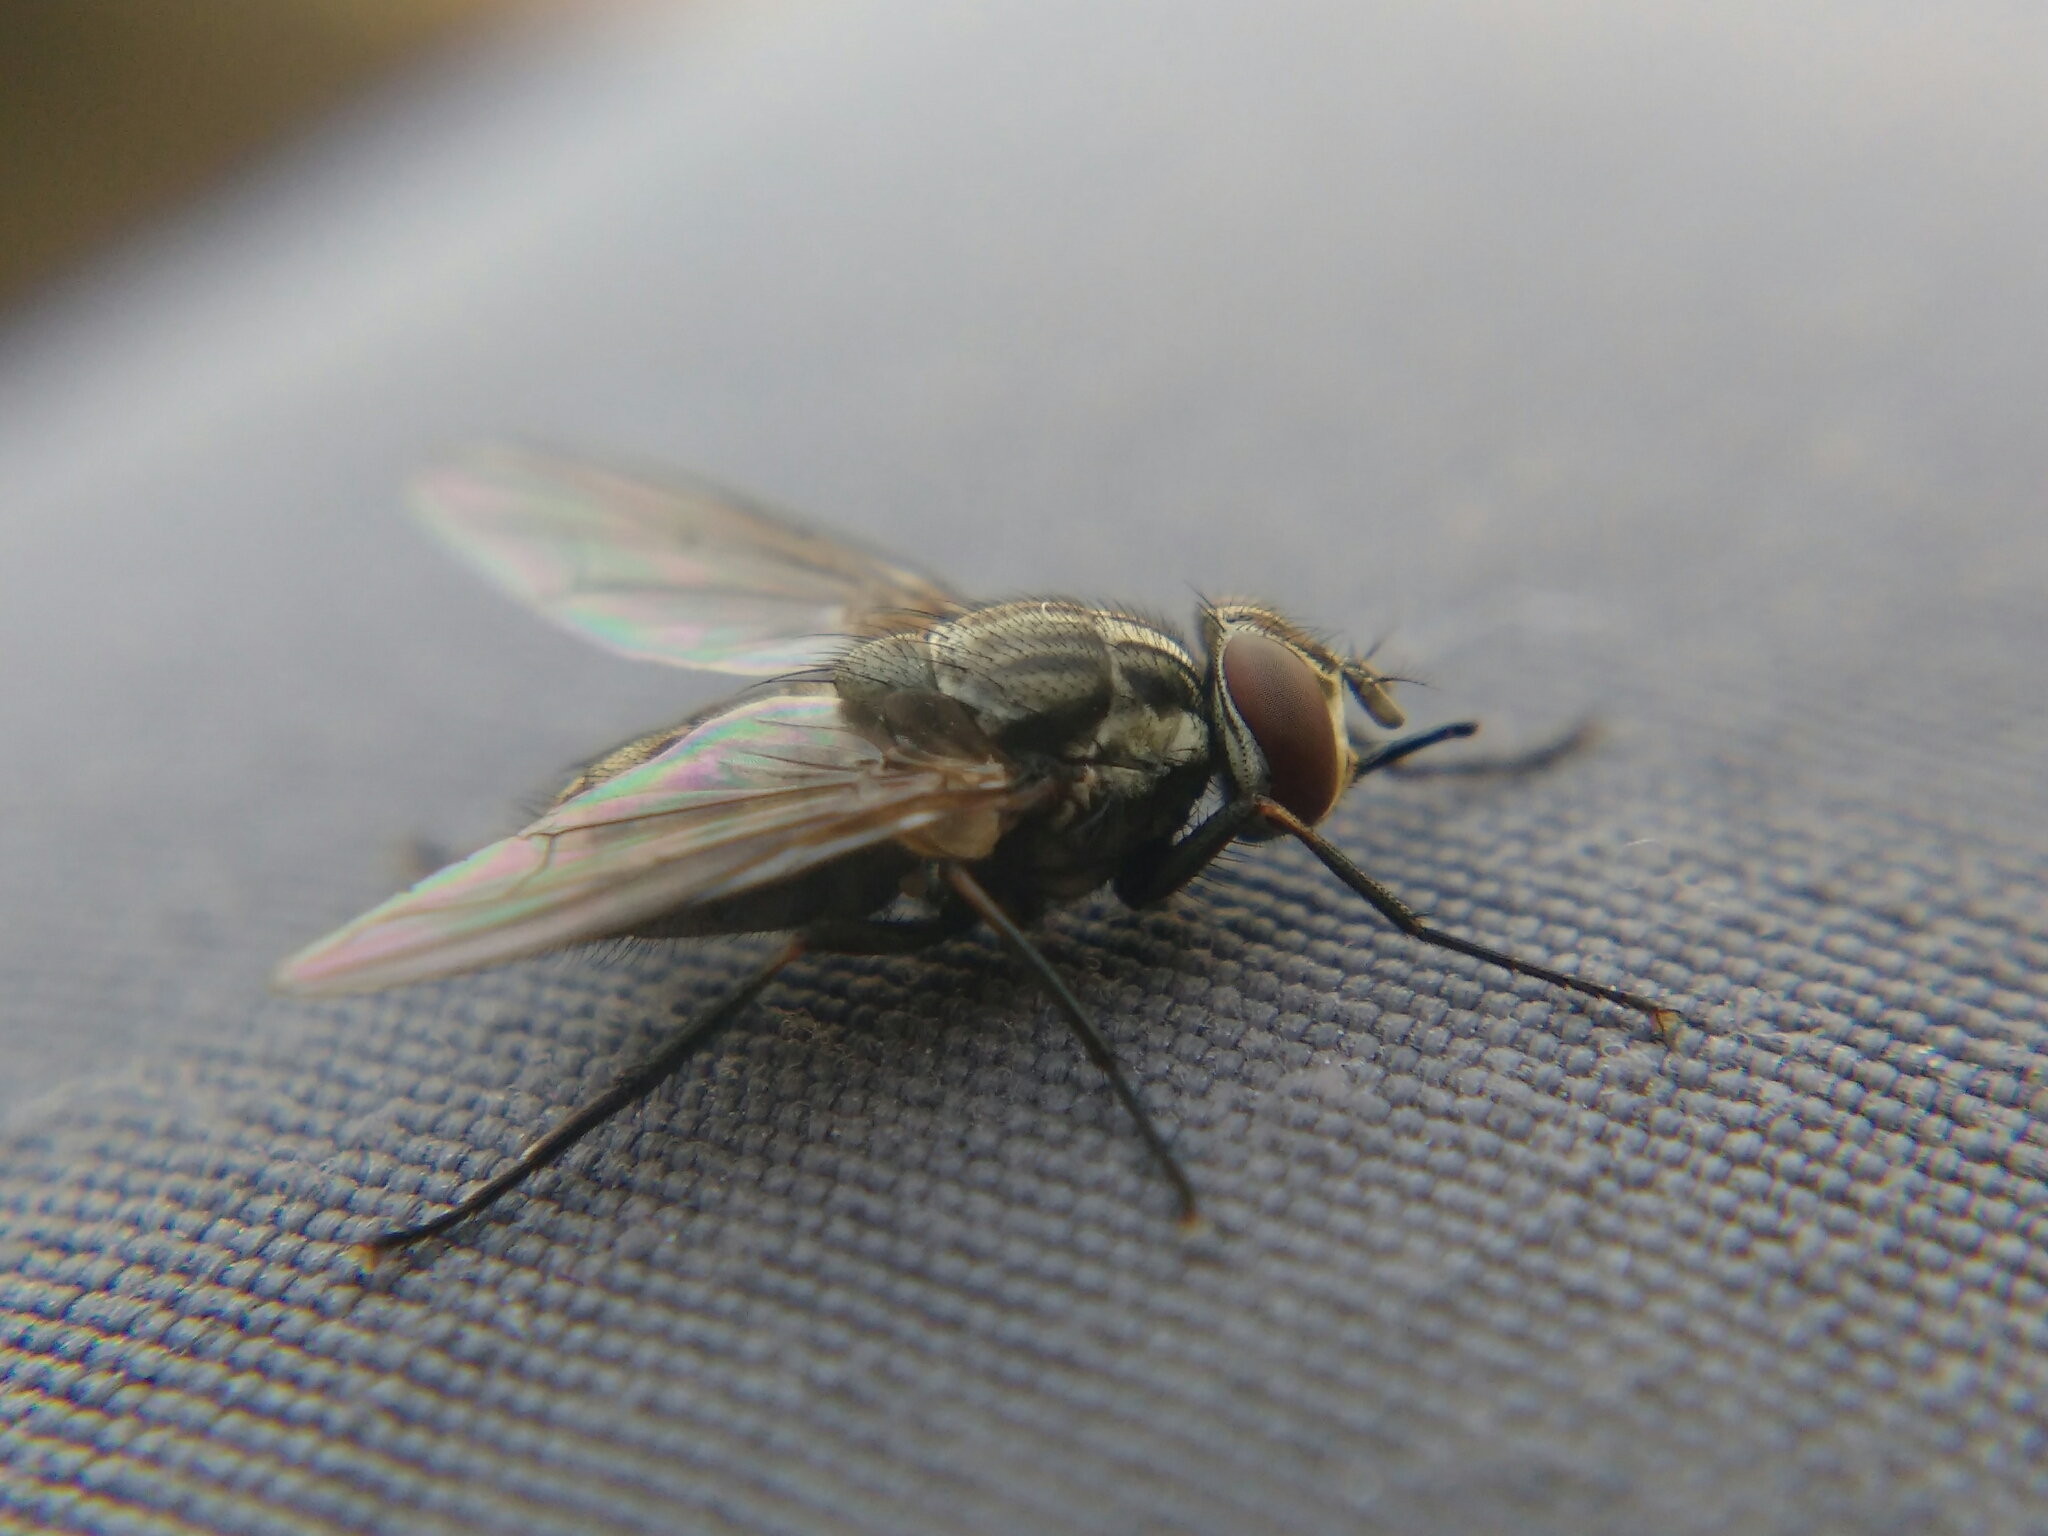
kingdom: Animalia
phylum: Arthropoda
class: Insecta
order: Diptera
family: Muscidae
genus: Stomoxys
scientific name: Stomoxys calcitrans
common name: Stable fly
